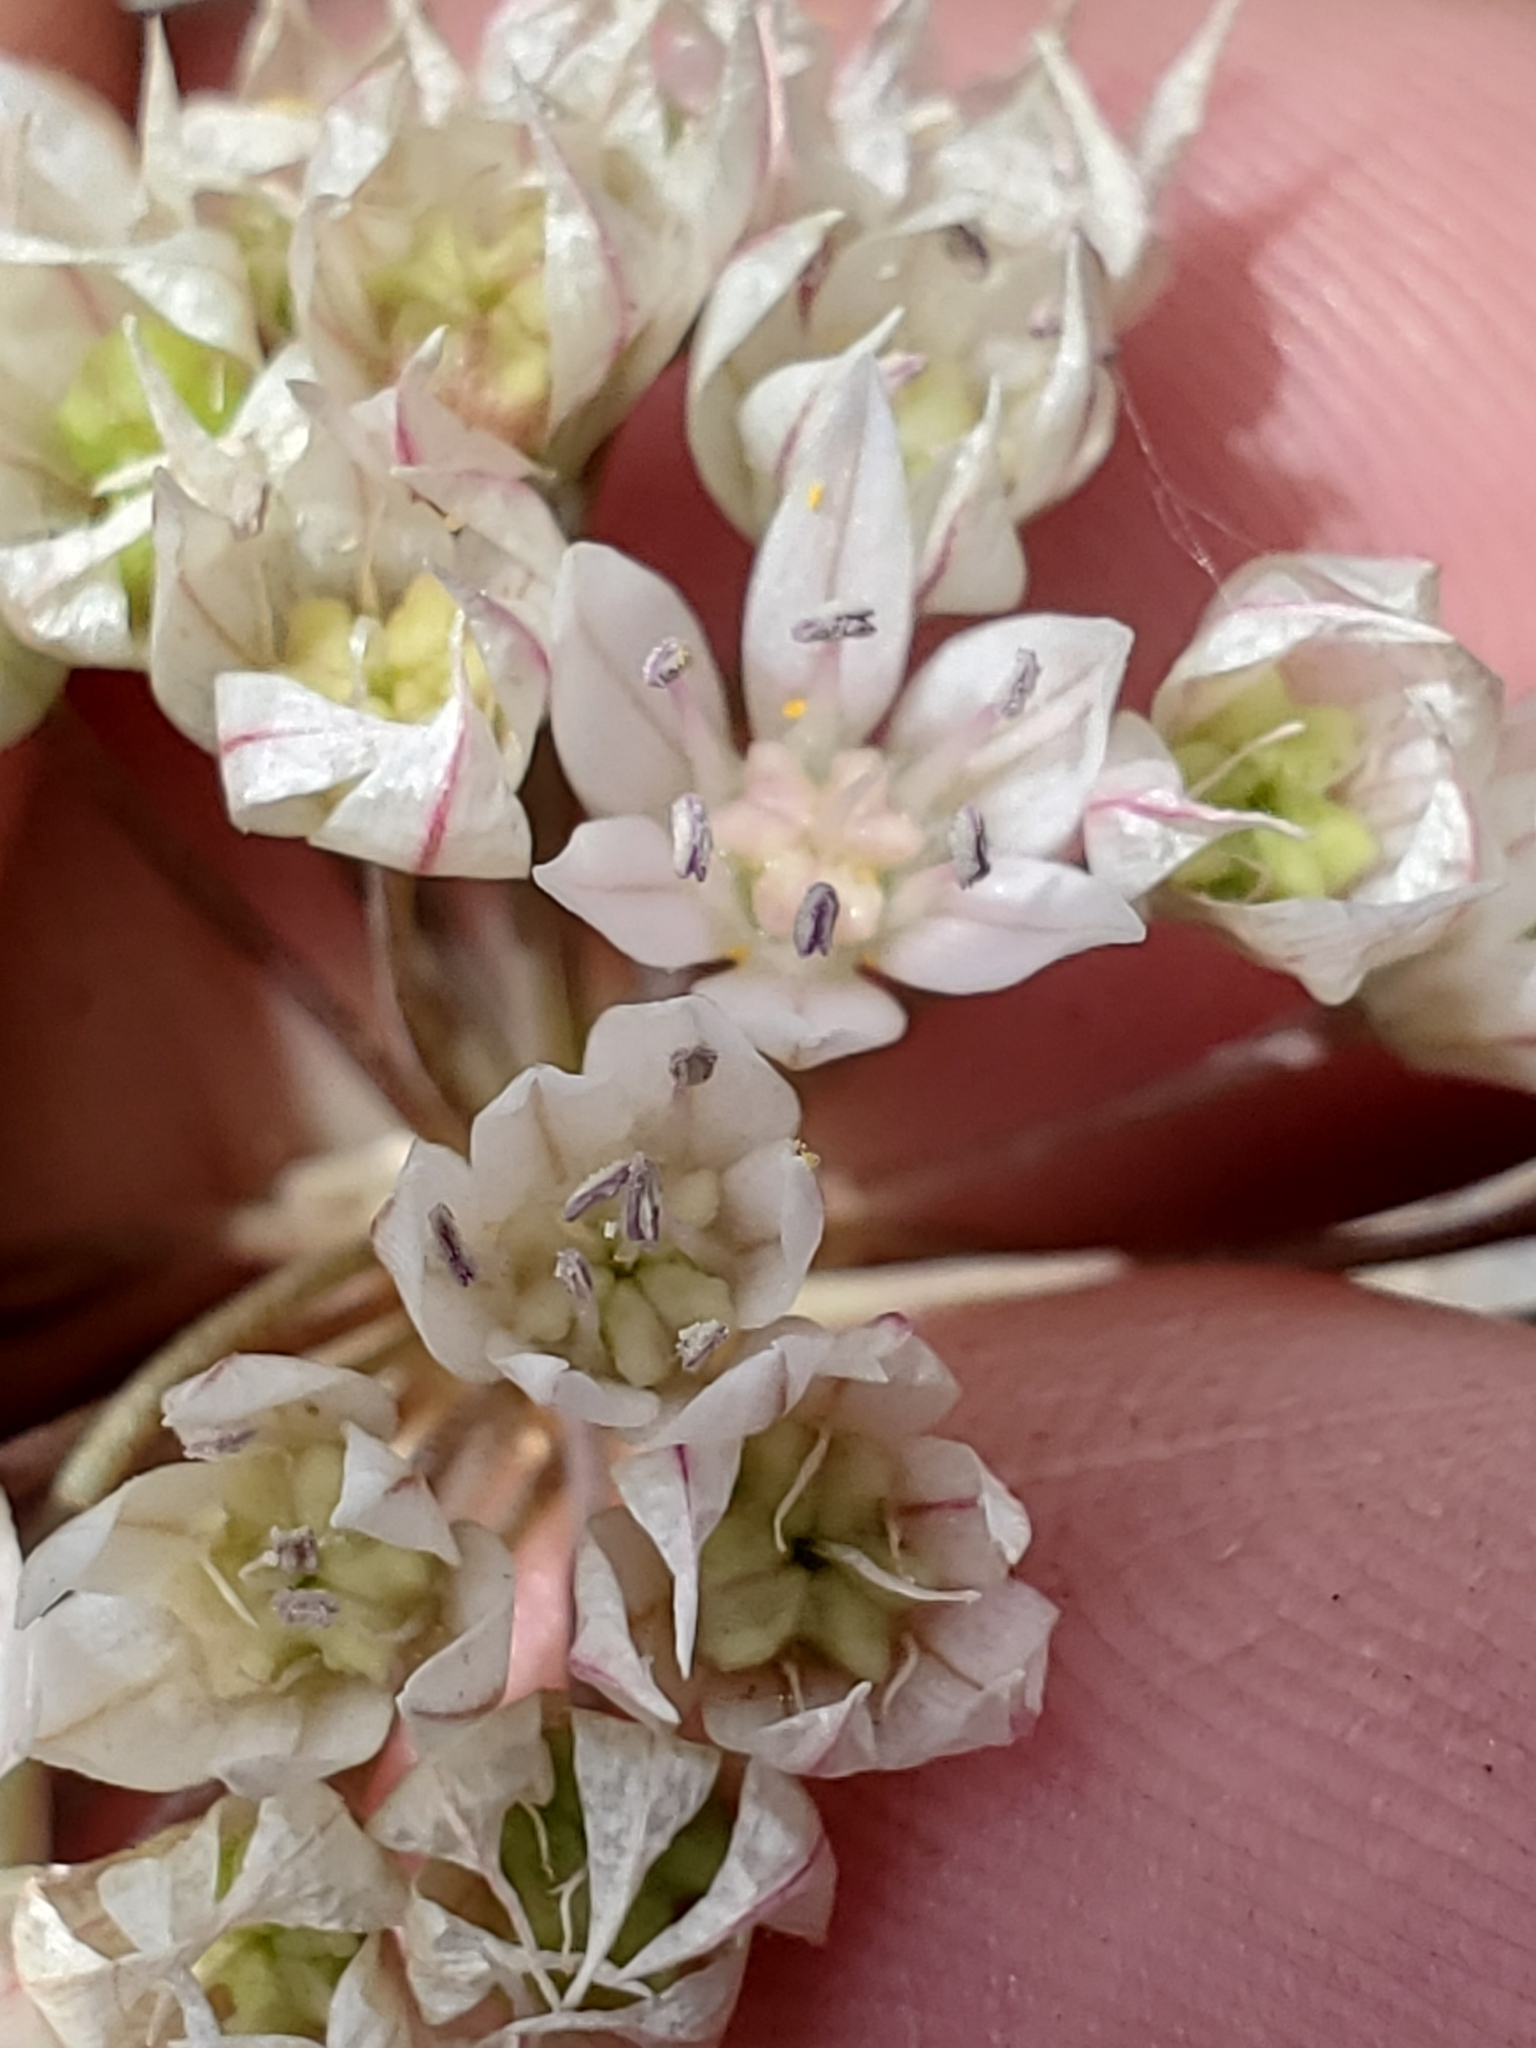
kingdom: Plantae
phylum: Tracheophyta
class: Liliopsida
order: Asparagales
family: Amaryllidaceae
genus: Allium
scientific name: Allium amplectens
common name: Narrow-leaved onion
